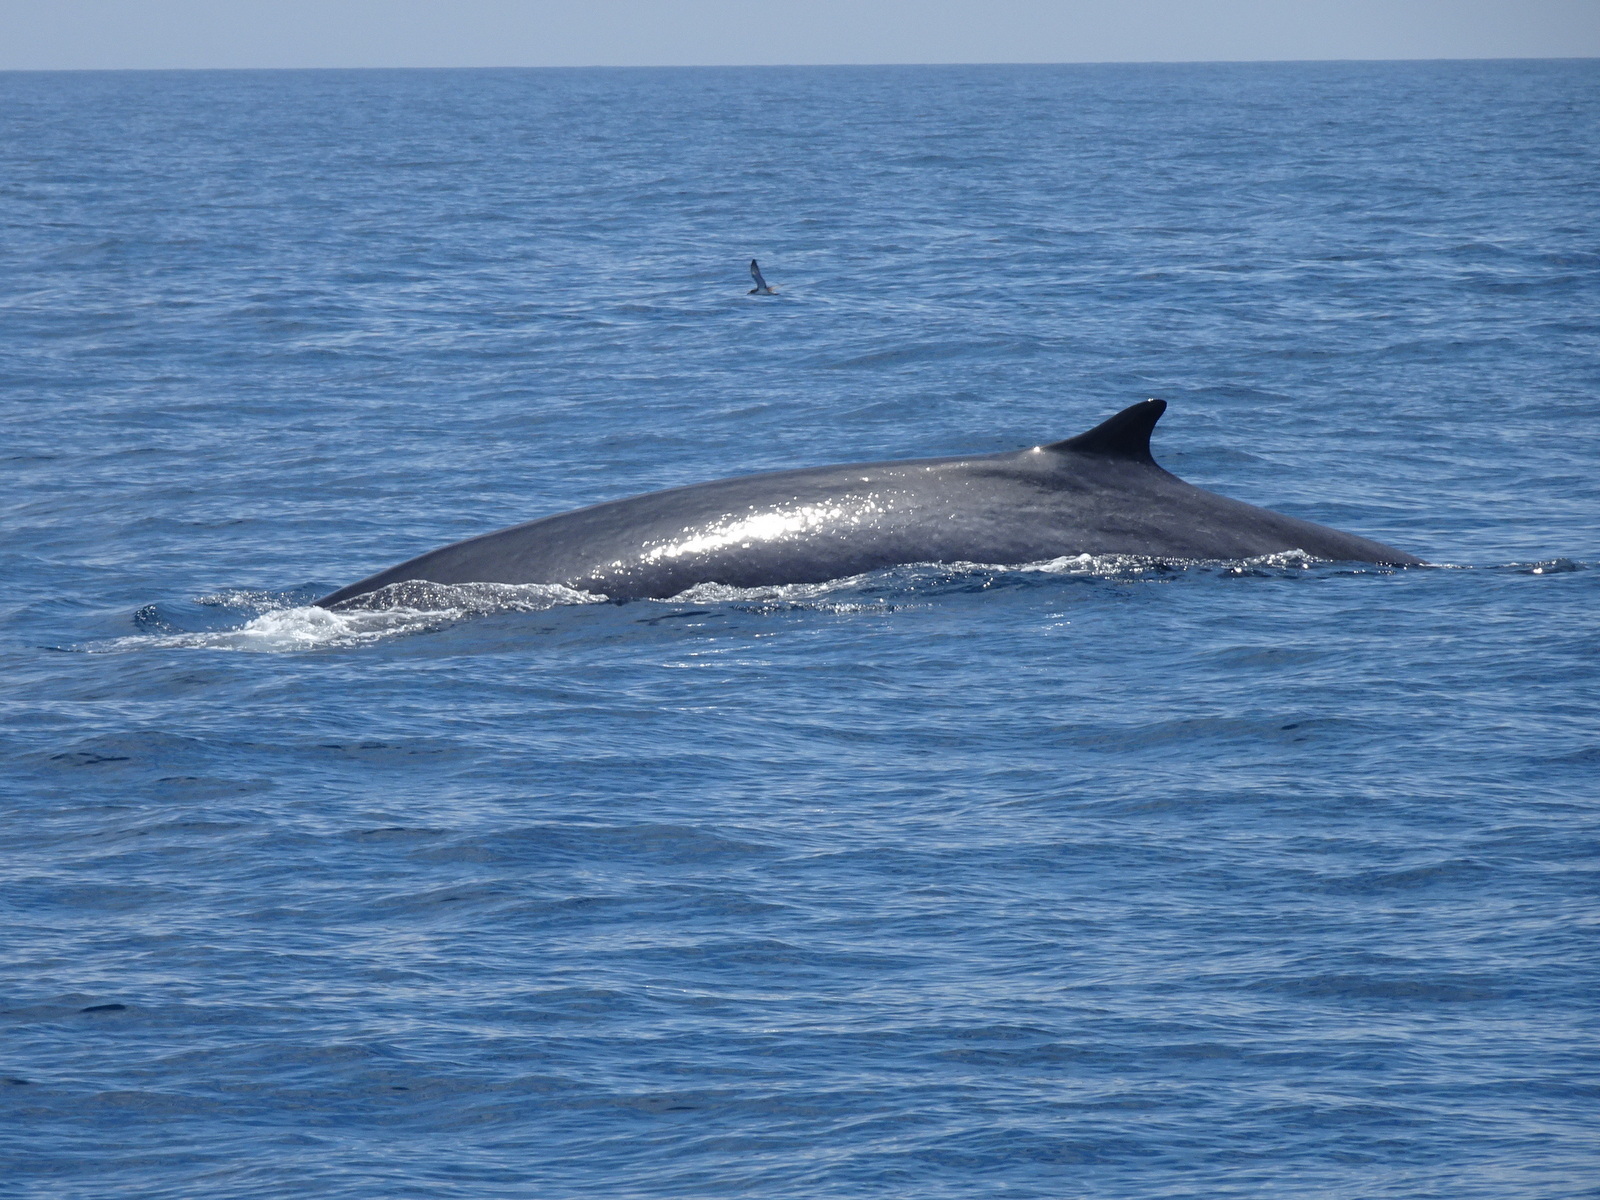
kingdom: Animalia
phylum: Chordata
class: Mammalia
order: Cetacea
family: Balaenopteridae
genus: Balaenoptera
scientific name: Balaenoptera physalus
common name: Fin whale
